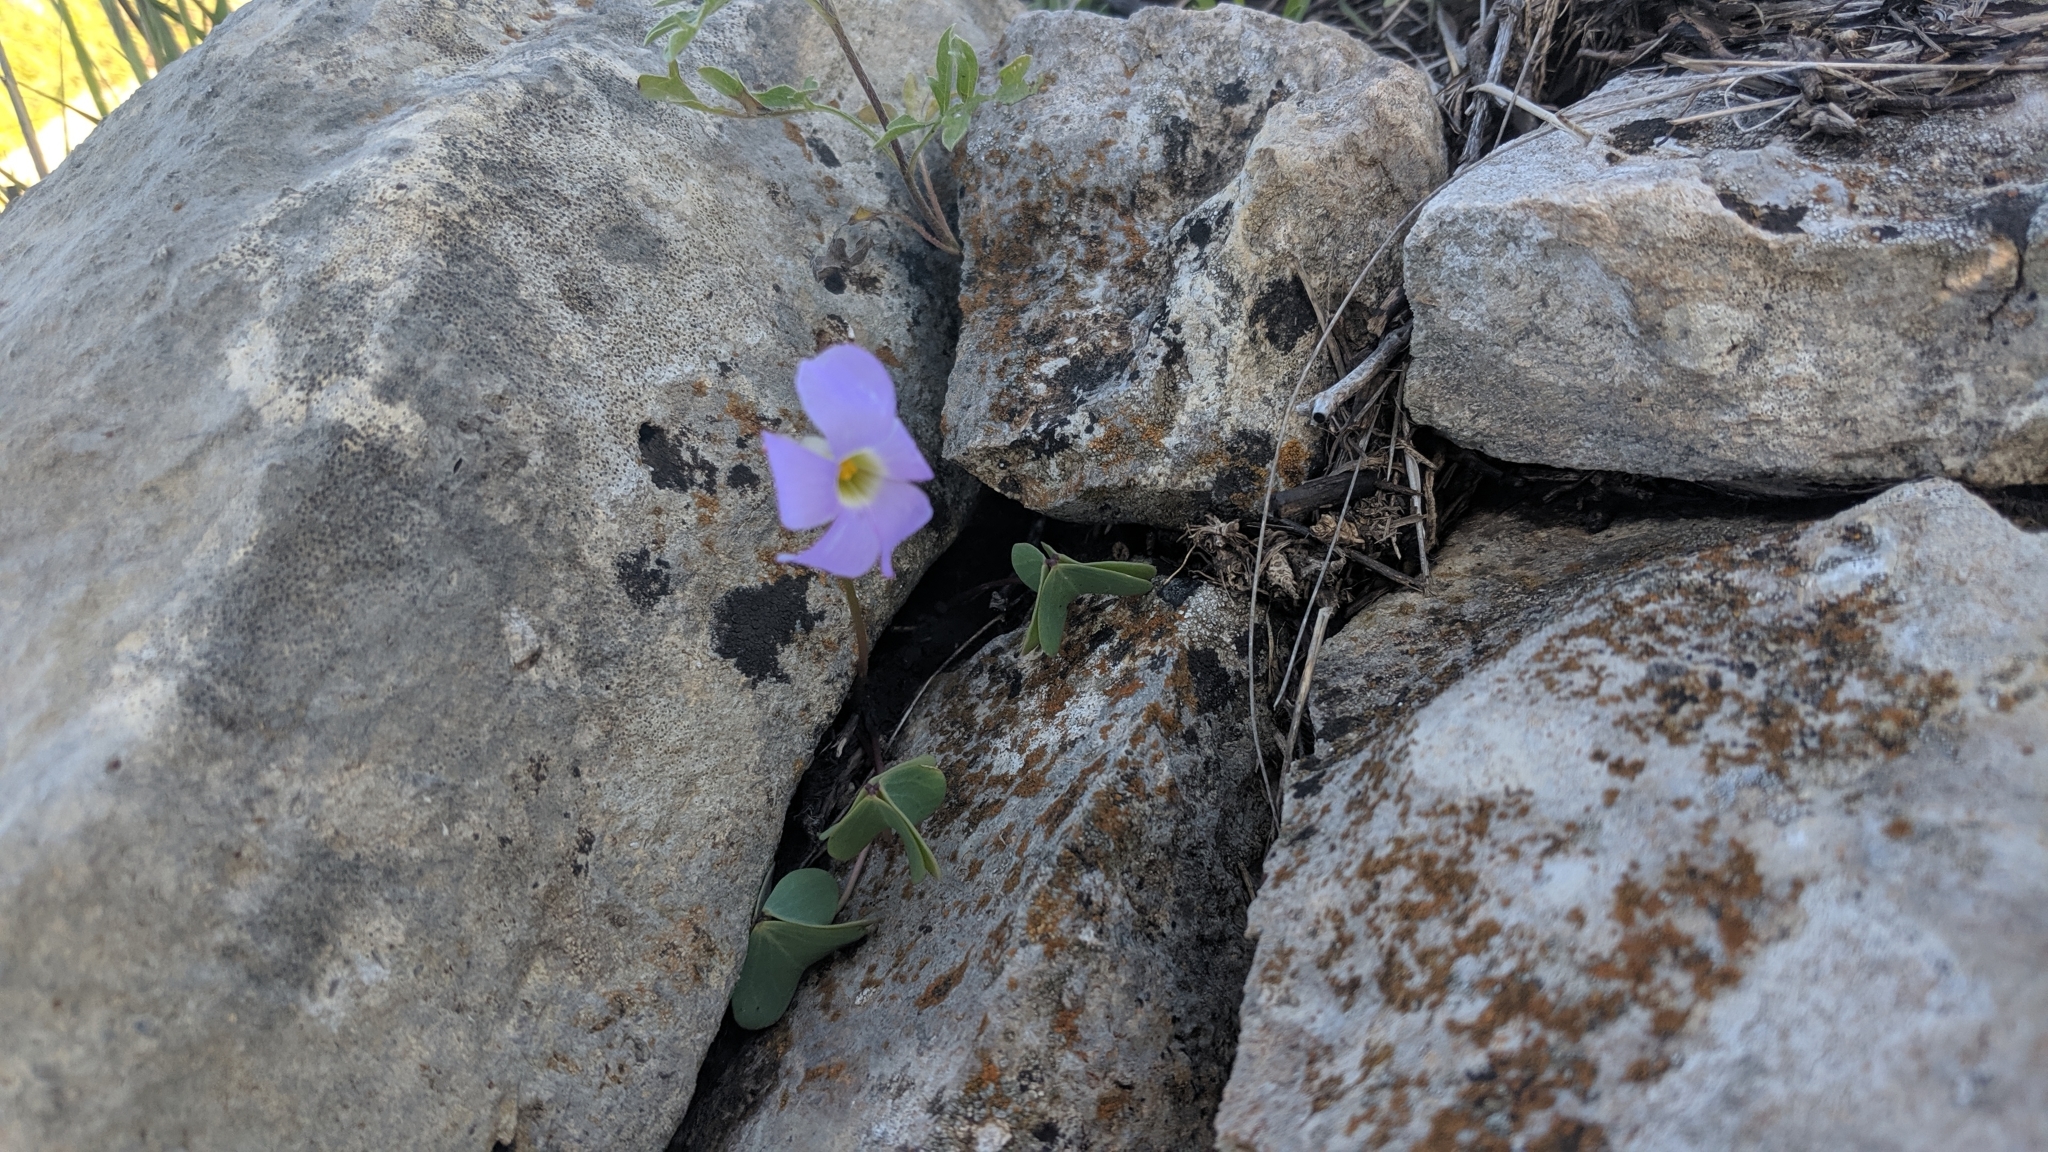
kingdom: Plantae
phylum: Tracheophyta
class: Magnoliopsida
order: Oxalidales
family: Oxalidaceae
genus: Oxalis
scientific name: Oxalis violacea
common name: Violet wood-sorrel
